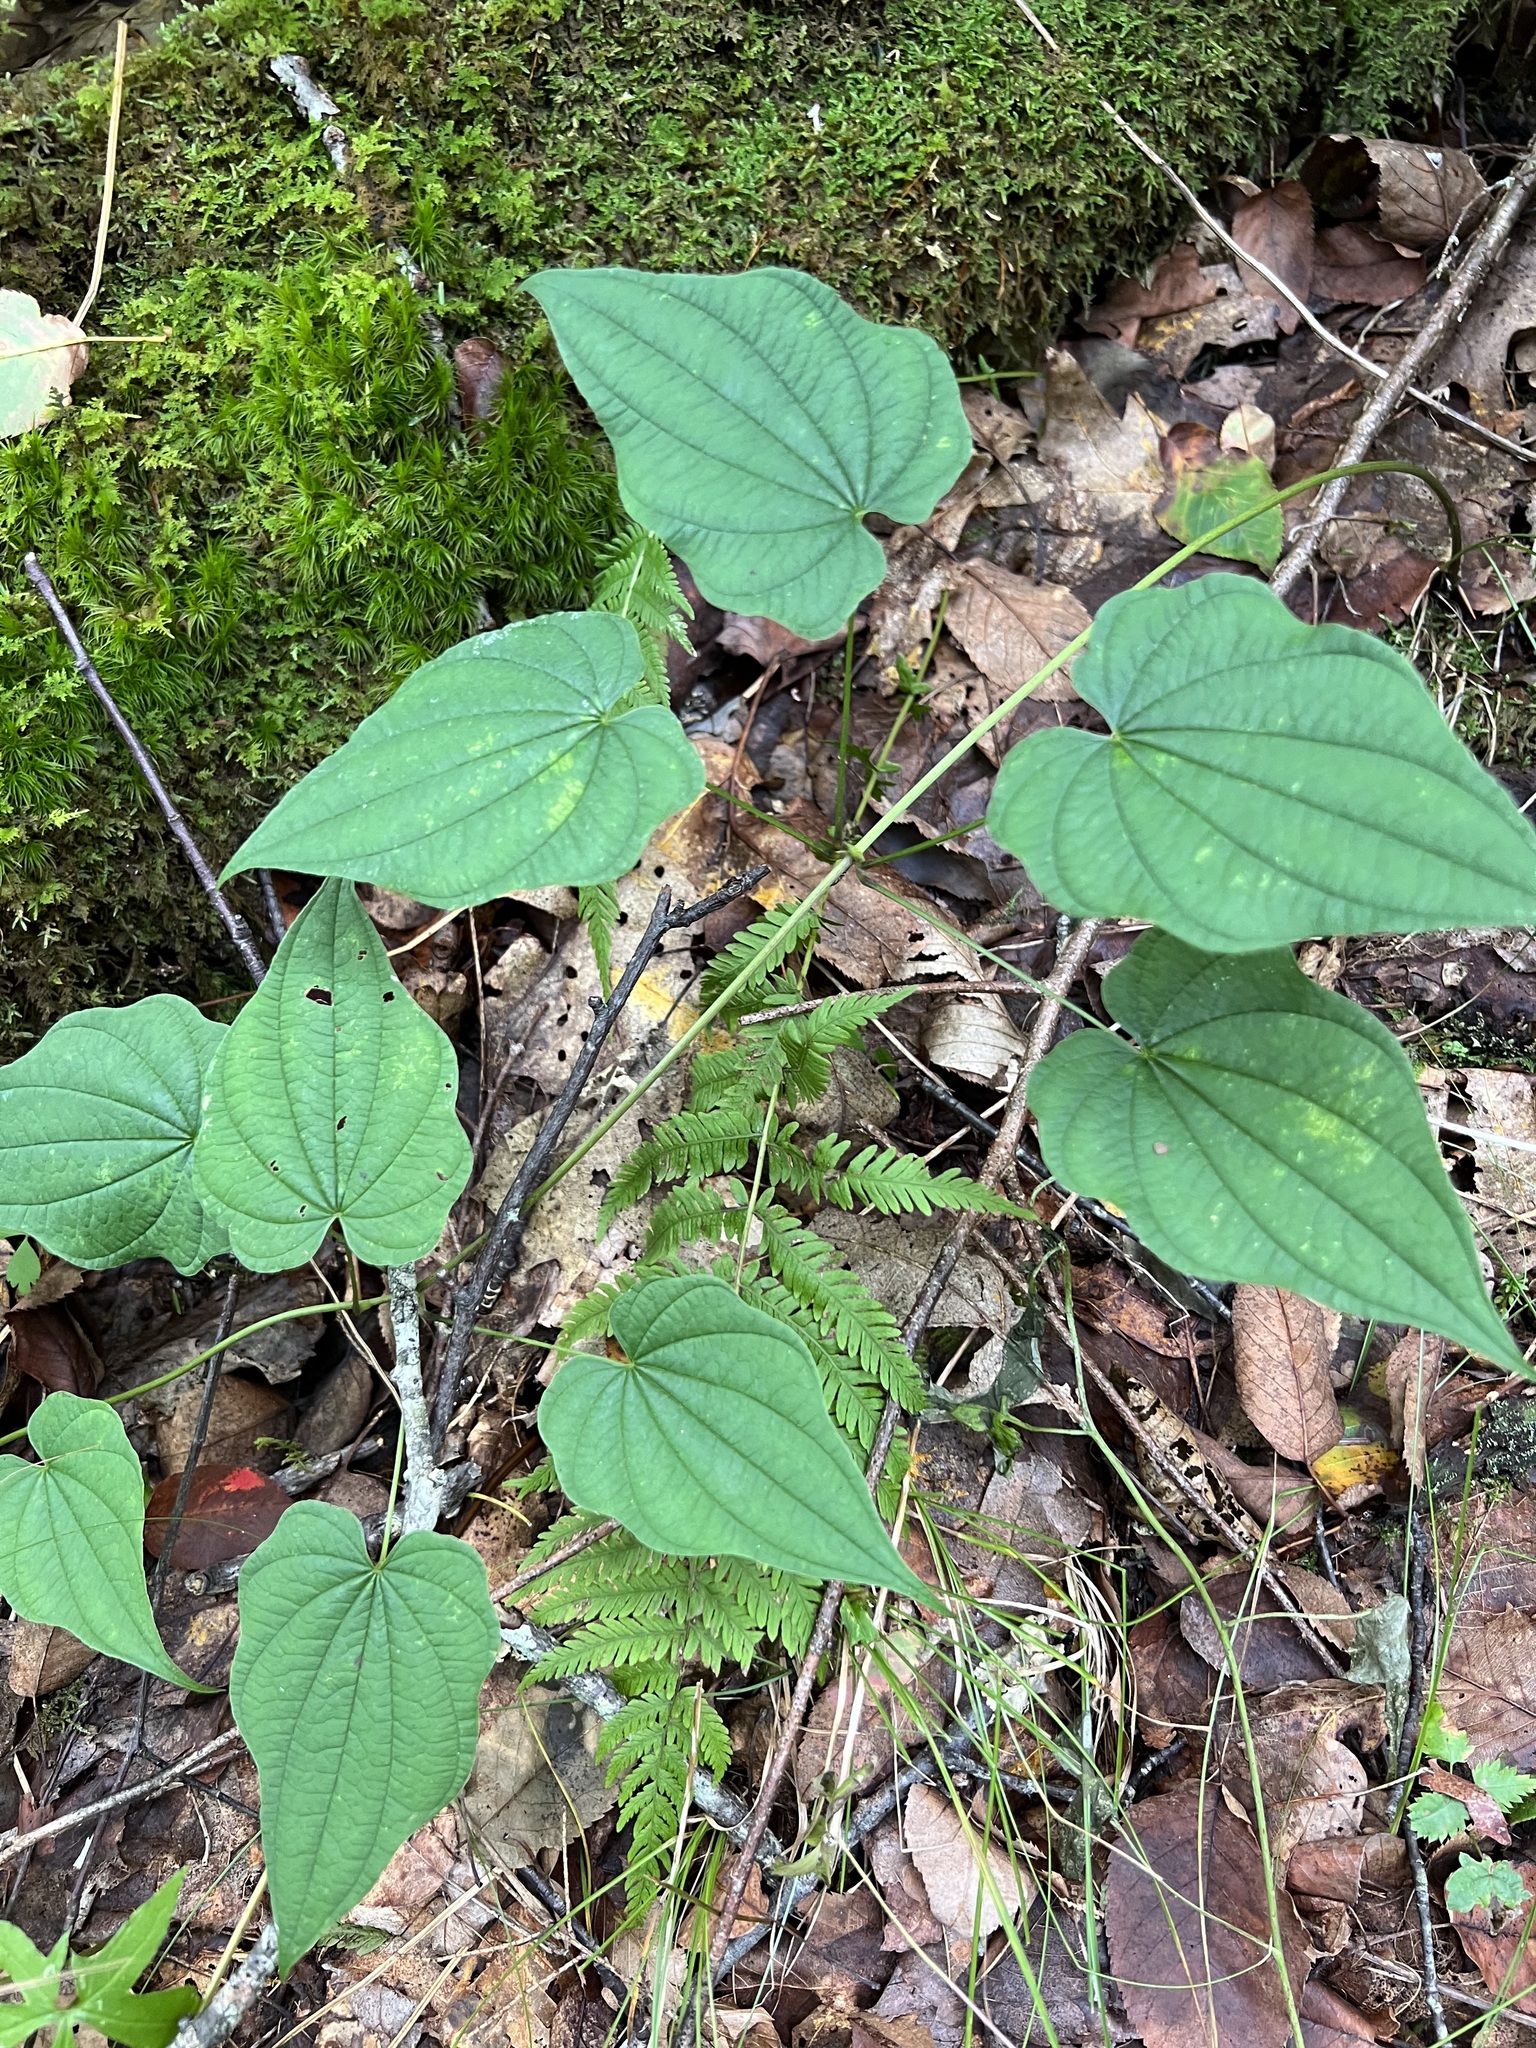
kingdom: Plantae
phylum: Tracheophyta
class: Liliopsida
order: Dioscoreales
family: Dioscoreaceae
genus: Dioscorea
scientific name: Dioscorea villosa
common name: Wild yam
